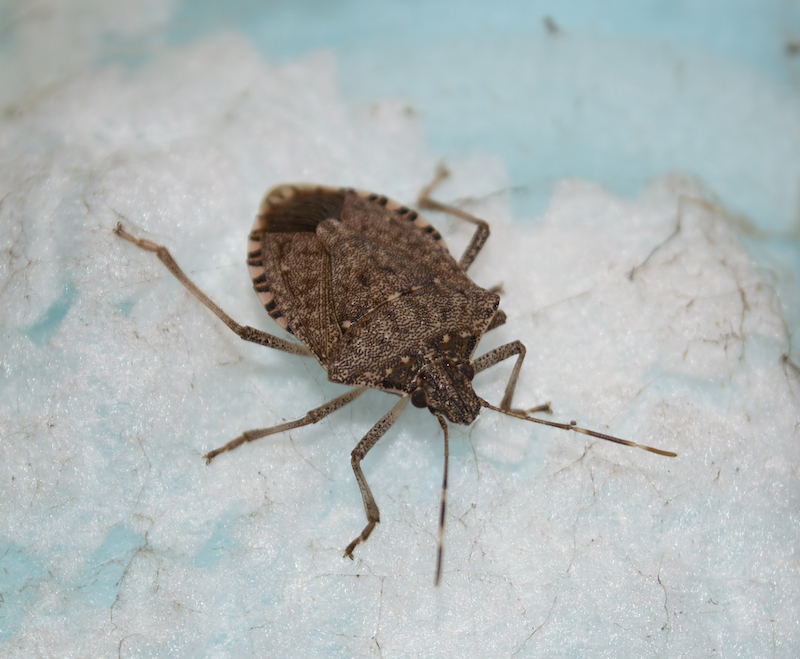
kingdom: Animalia
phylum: Arthropoda
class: Insecta
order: Hemiptera
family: Pentatomidae
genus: Halyomorpha
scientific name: Halyomorpha halys
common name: Brown marmorated stink bug
